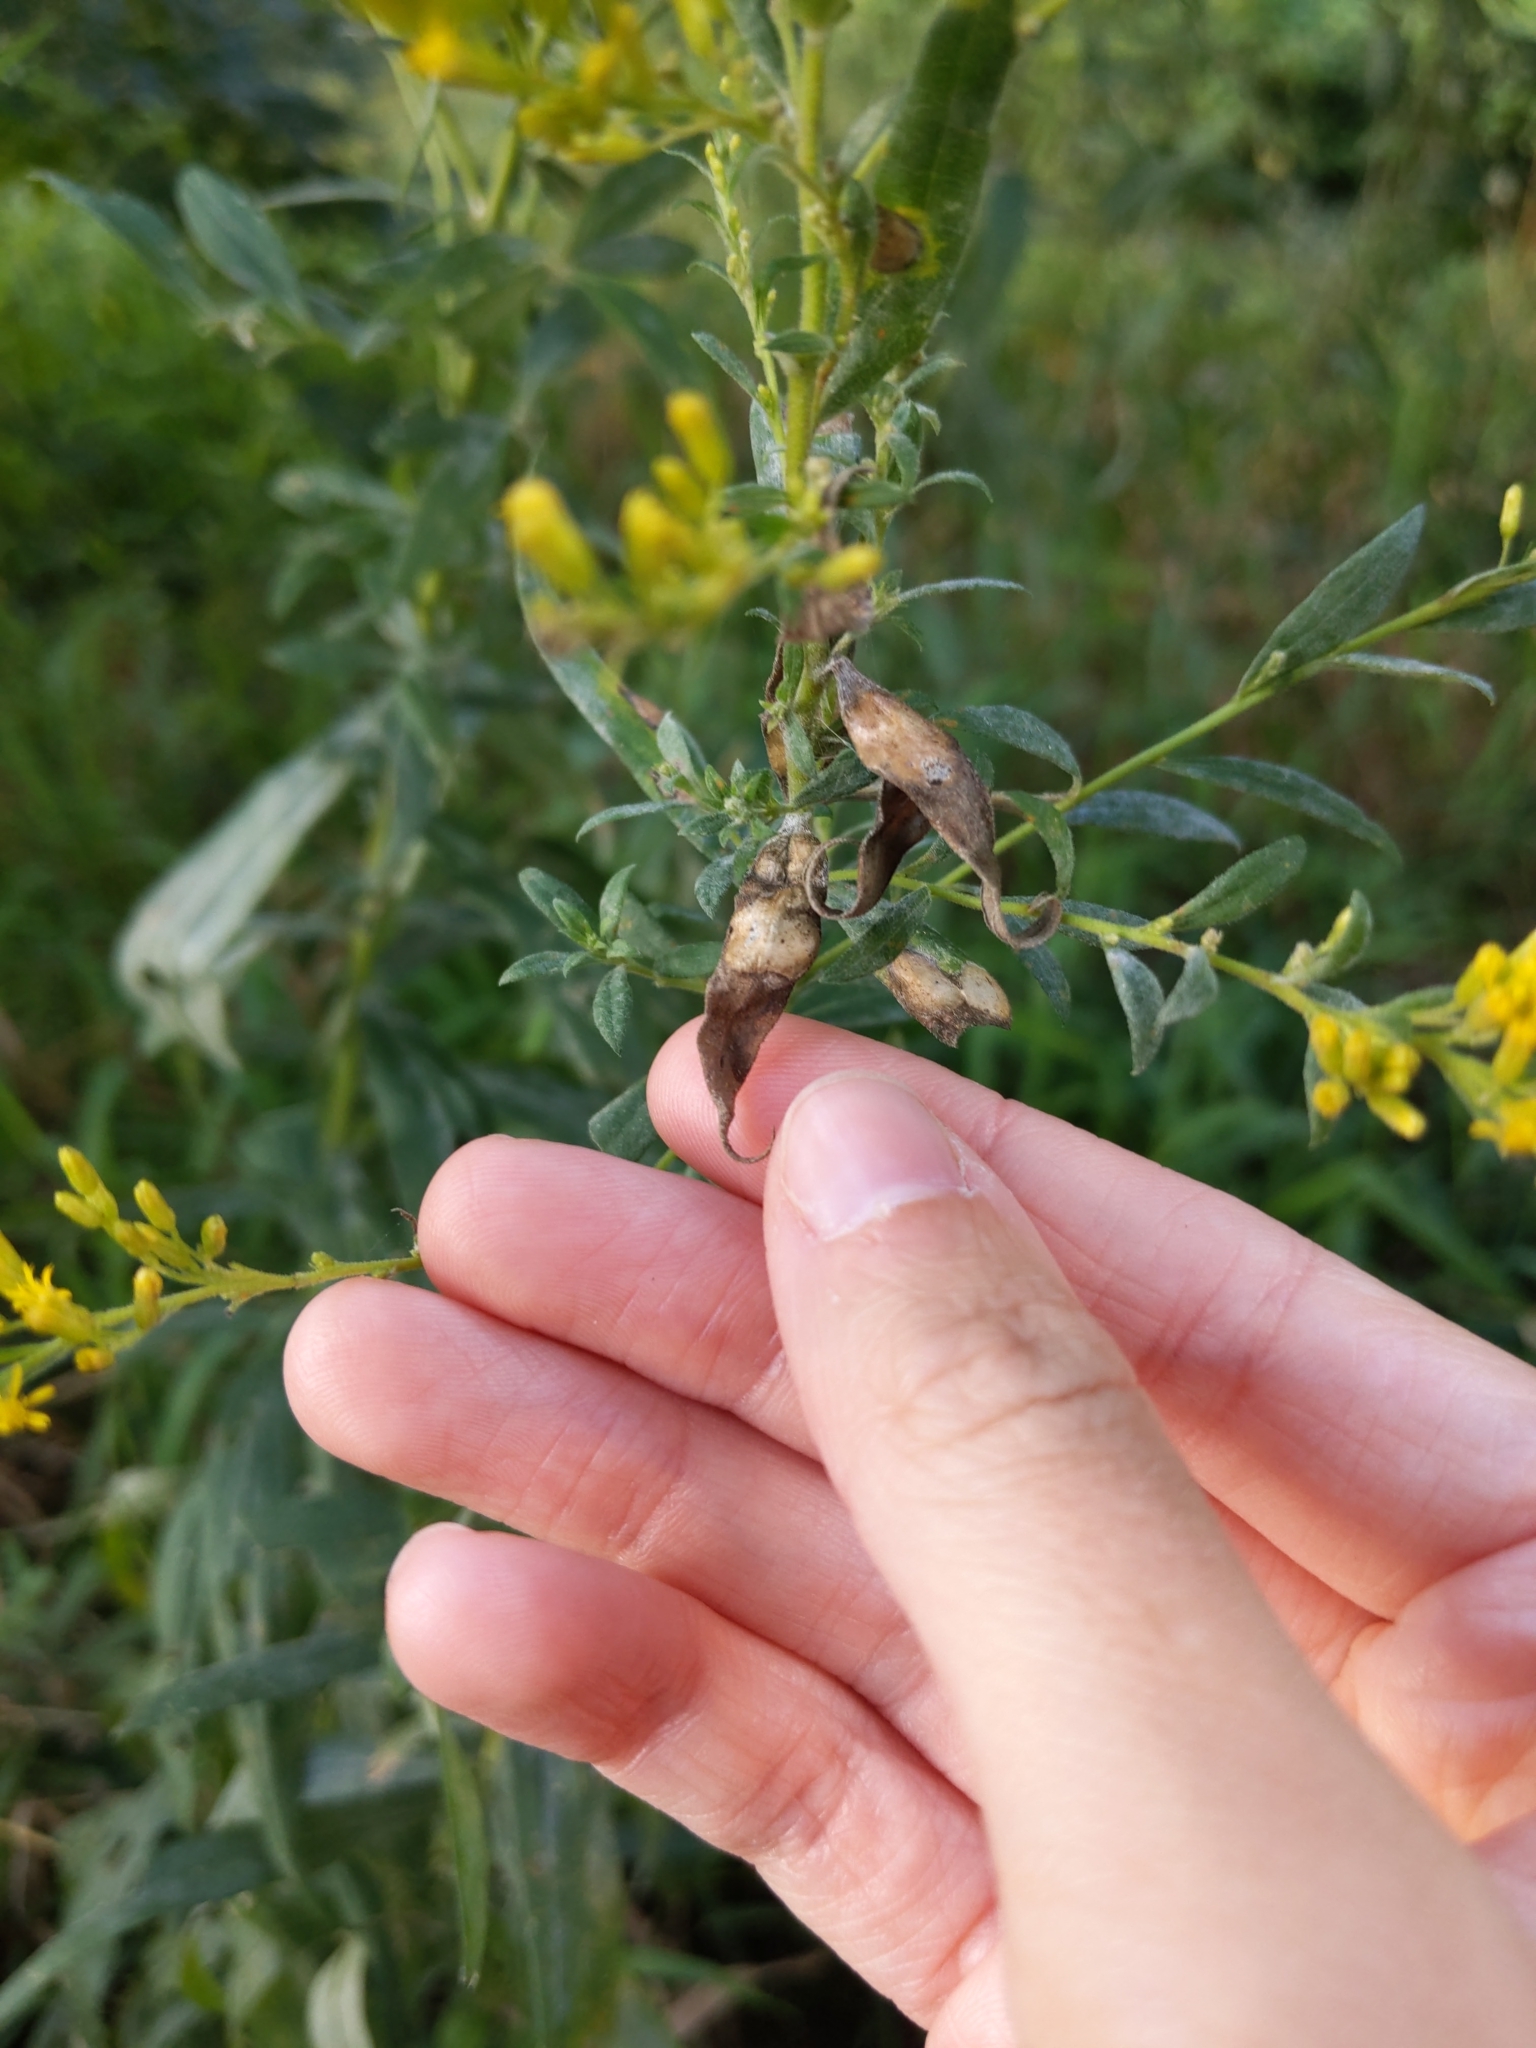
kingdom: Animalia
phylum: Arthropoda
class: Insecta
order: Diptera
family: Cecidomyiidae
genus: Asteromyia
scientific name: Asteromyia carbonifera
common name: Carbonifera goldenrod gall midge
